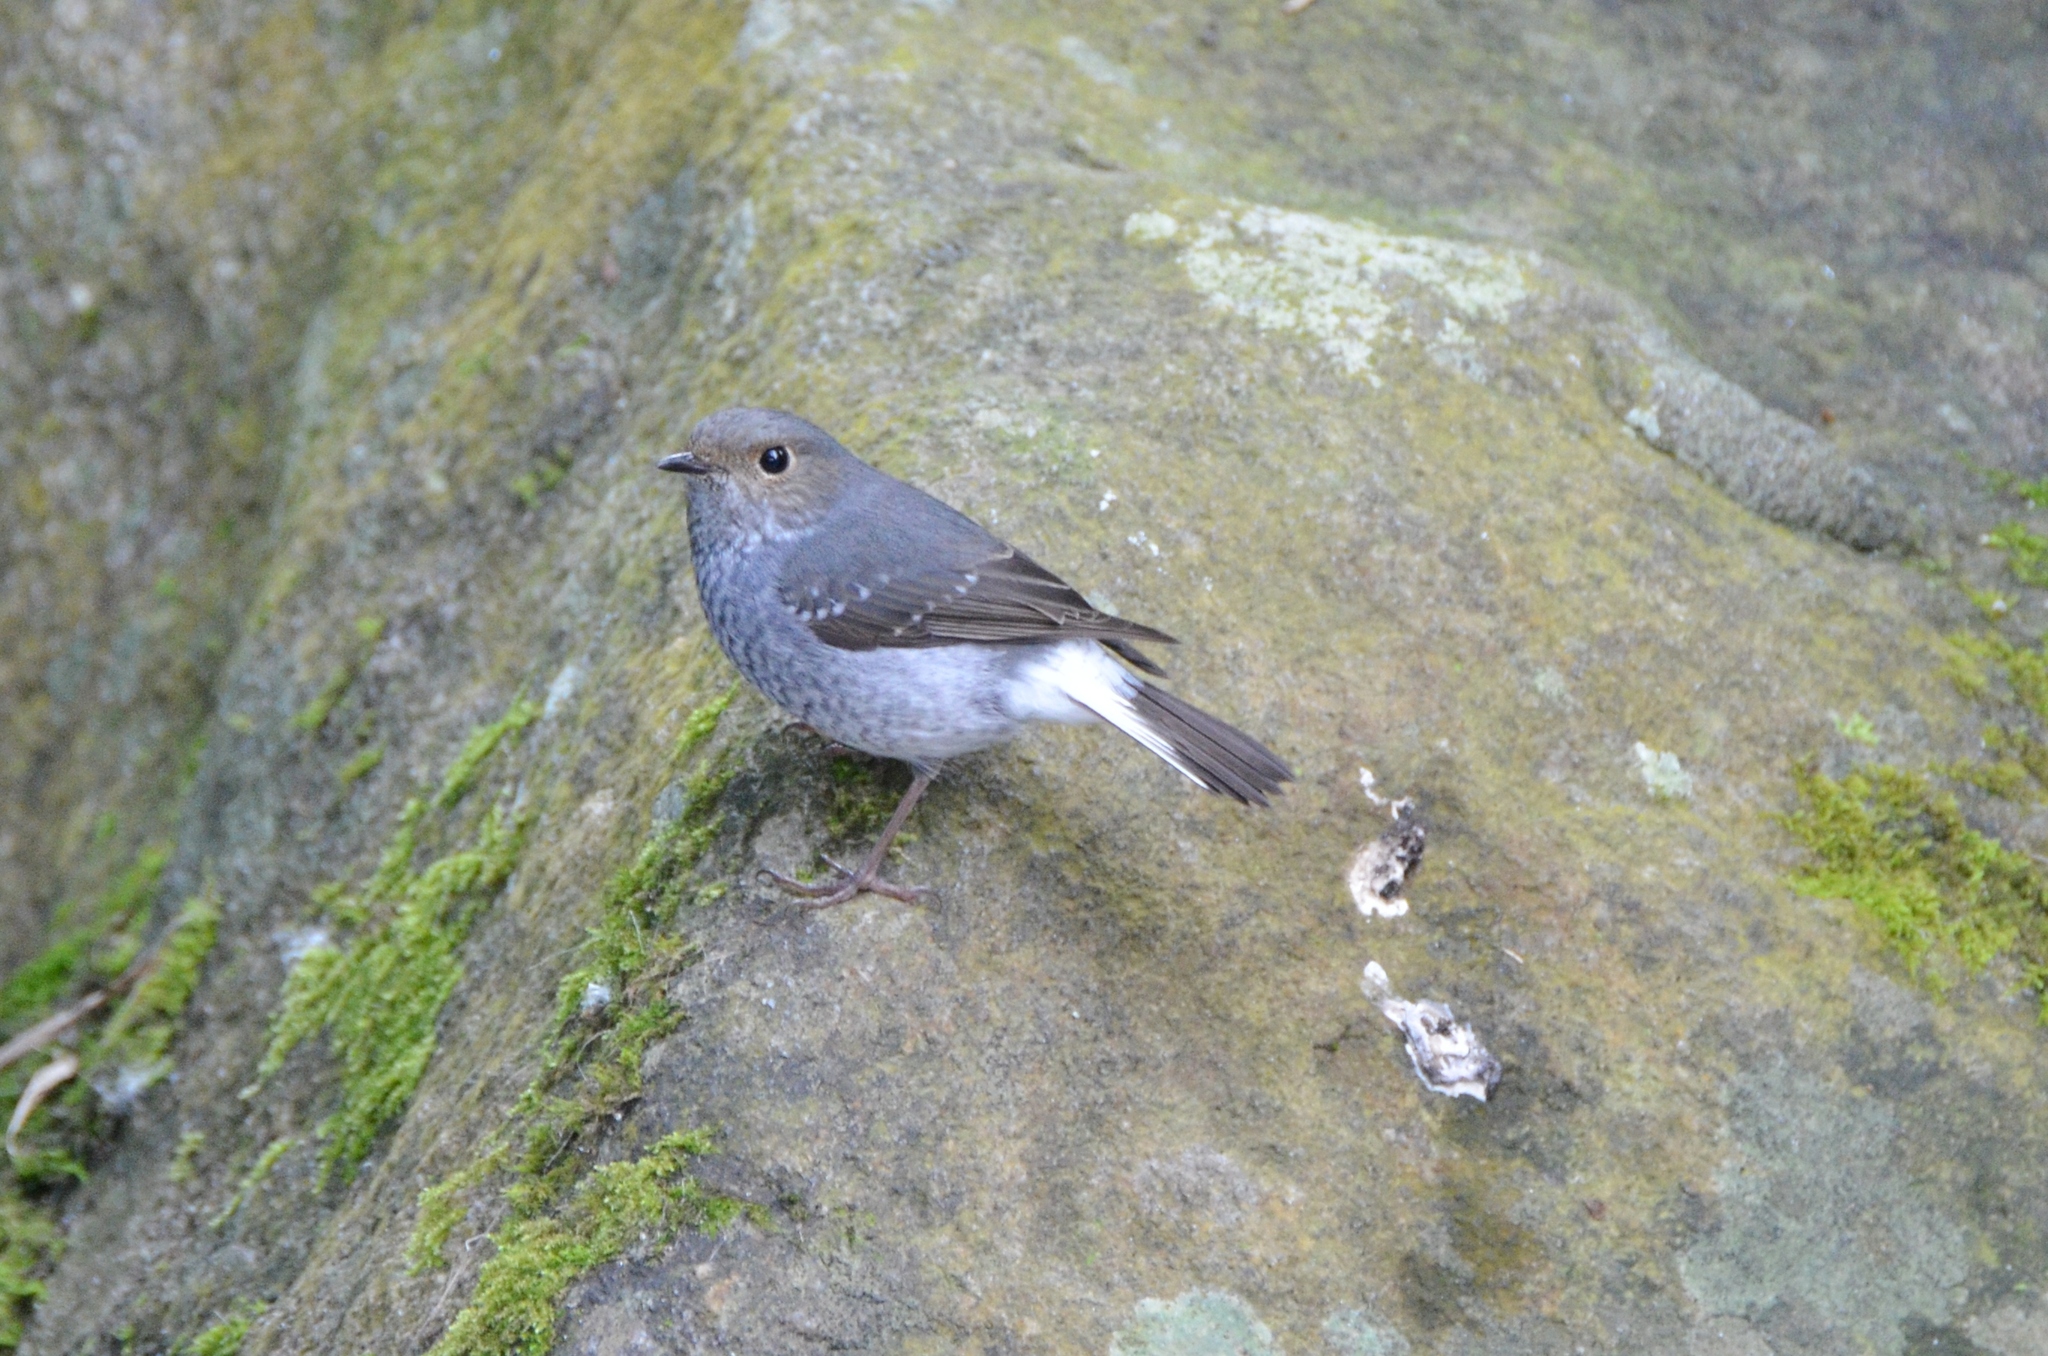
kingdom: Animalia
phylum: Chordata
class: Aves
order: Passeriformes
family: Muscicapidae
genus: Phoenicurus
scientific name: Phoenicurus fuliginosus
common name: Plumbeous water redstart
